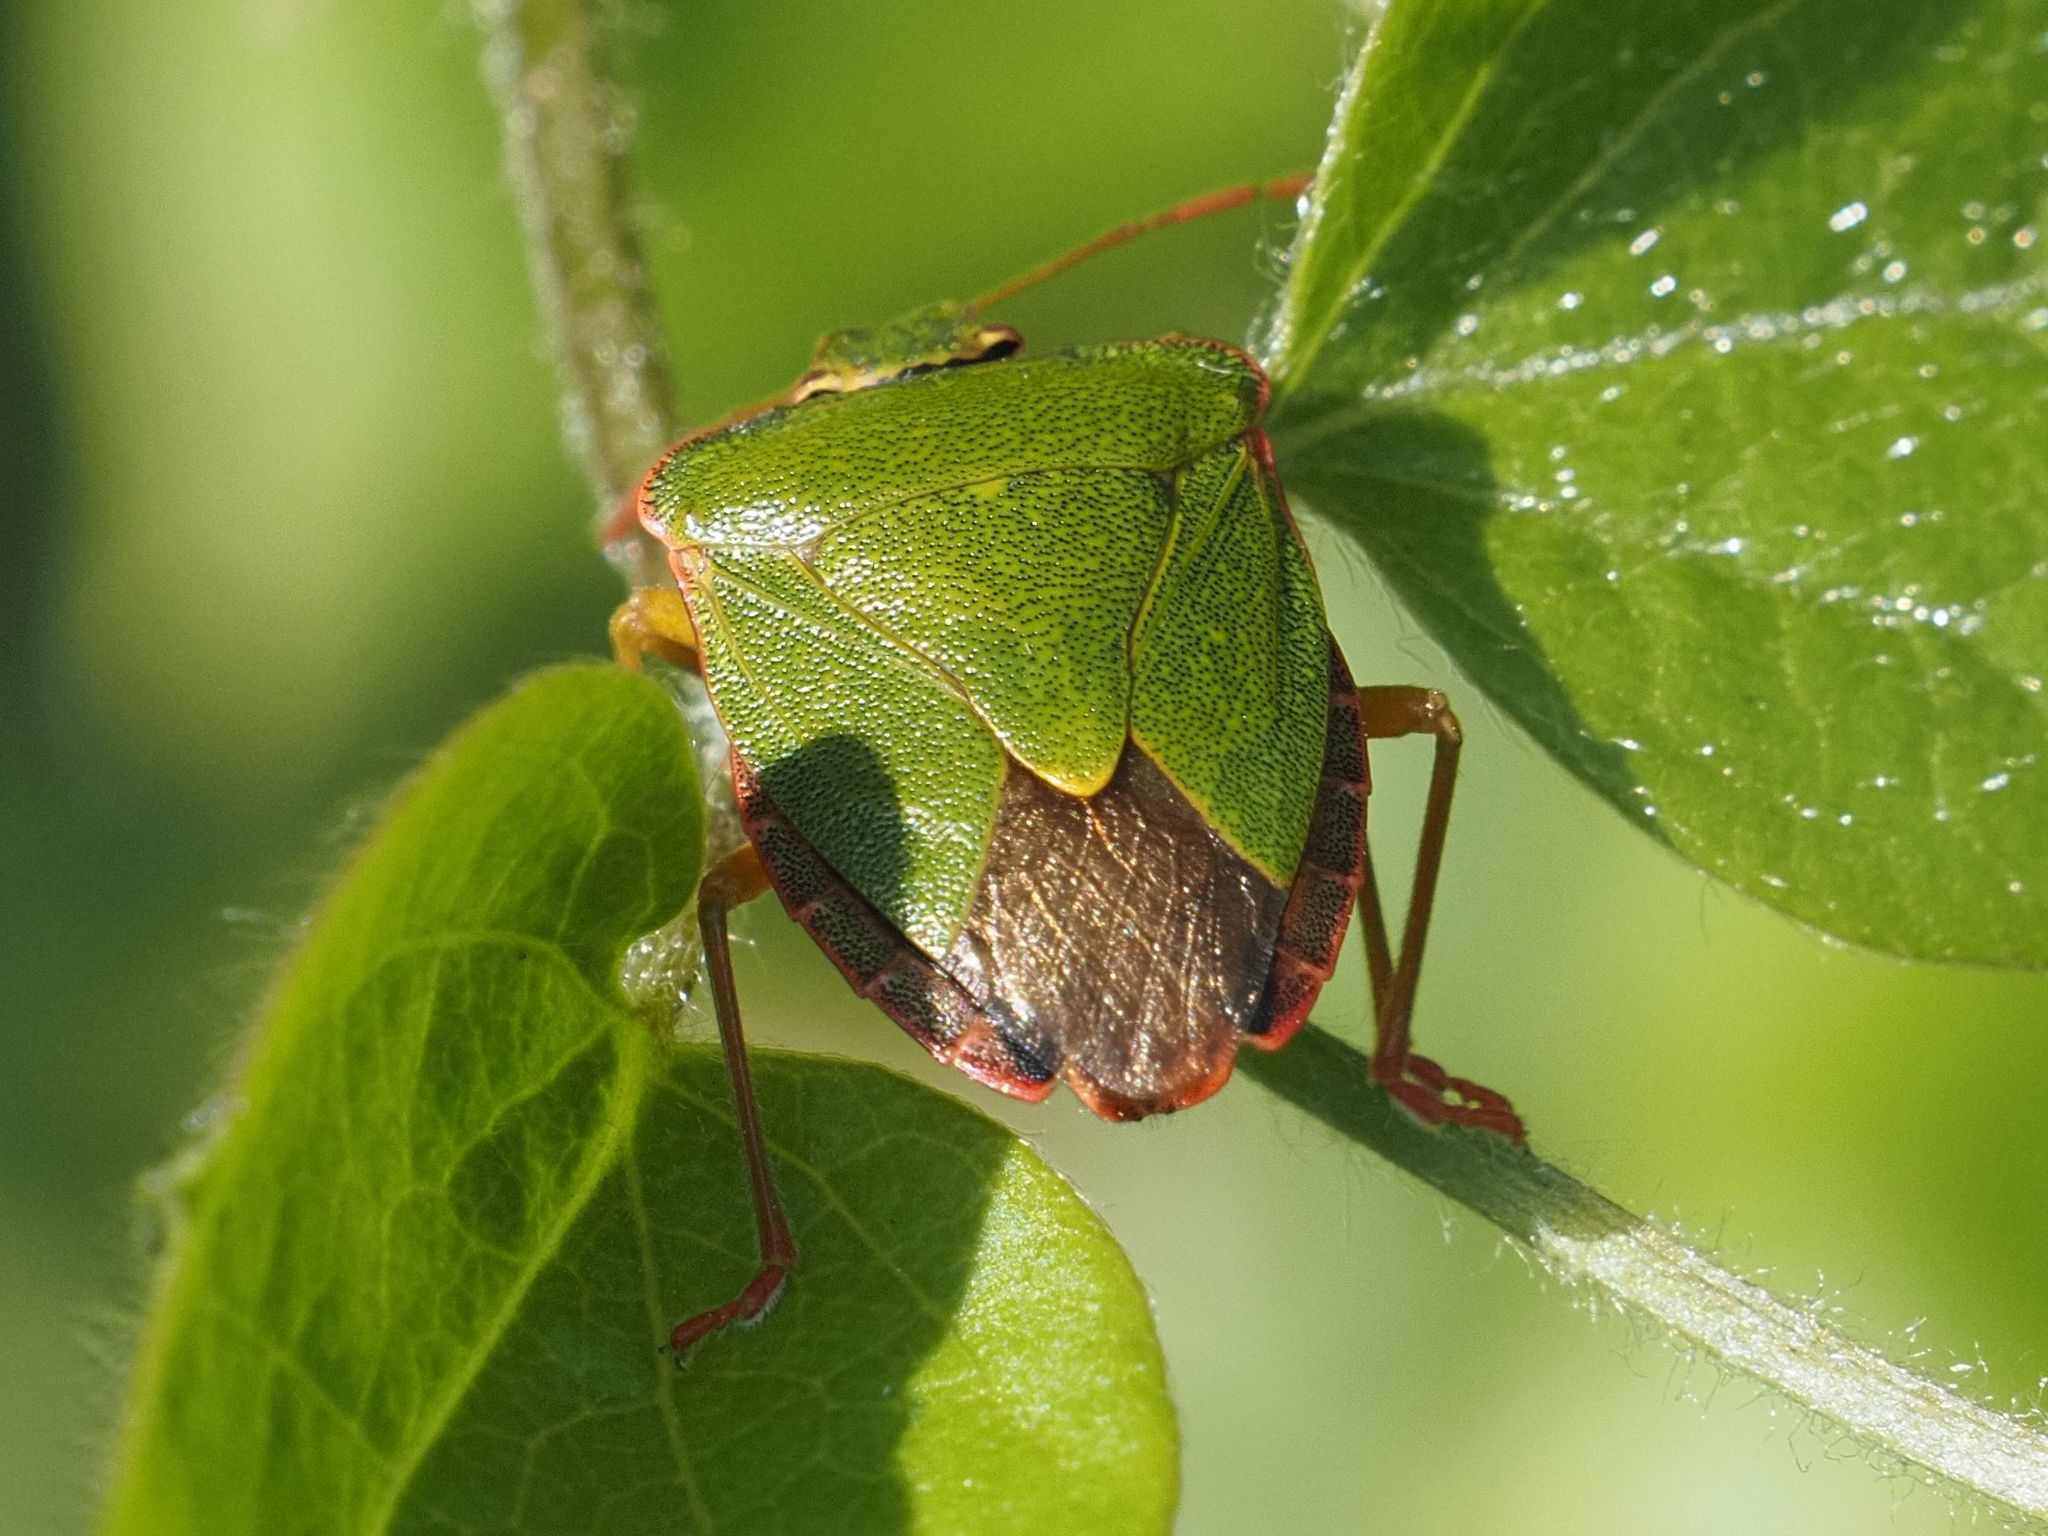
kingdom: Animalia
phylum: Arthropoda
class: Insecta
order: Hemiptera
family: Pentatomidae
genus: Palomena
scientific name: Palomena prasina
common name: Green shieldbug
